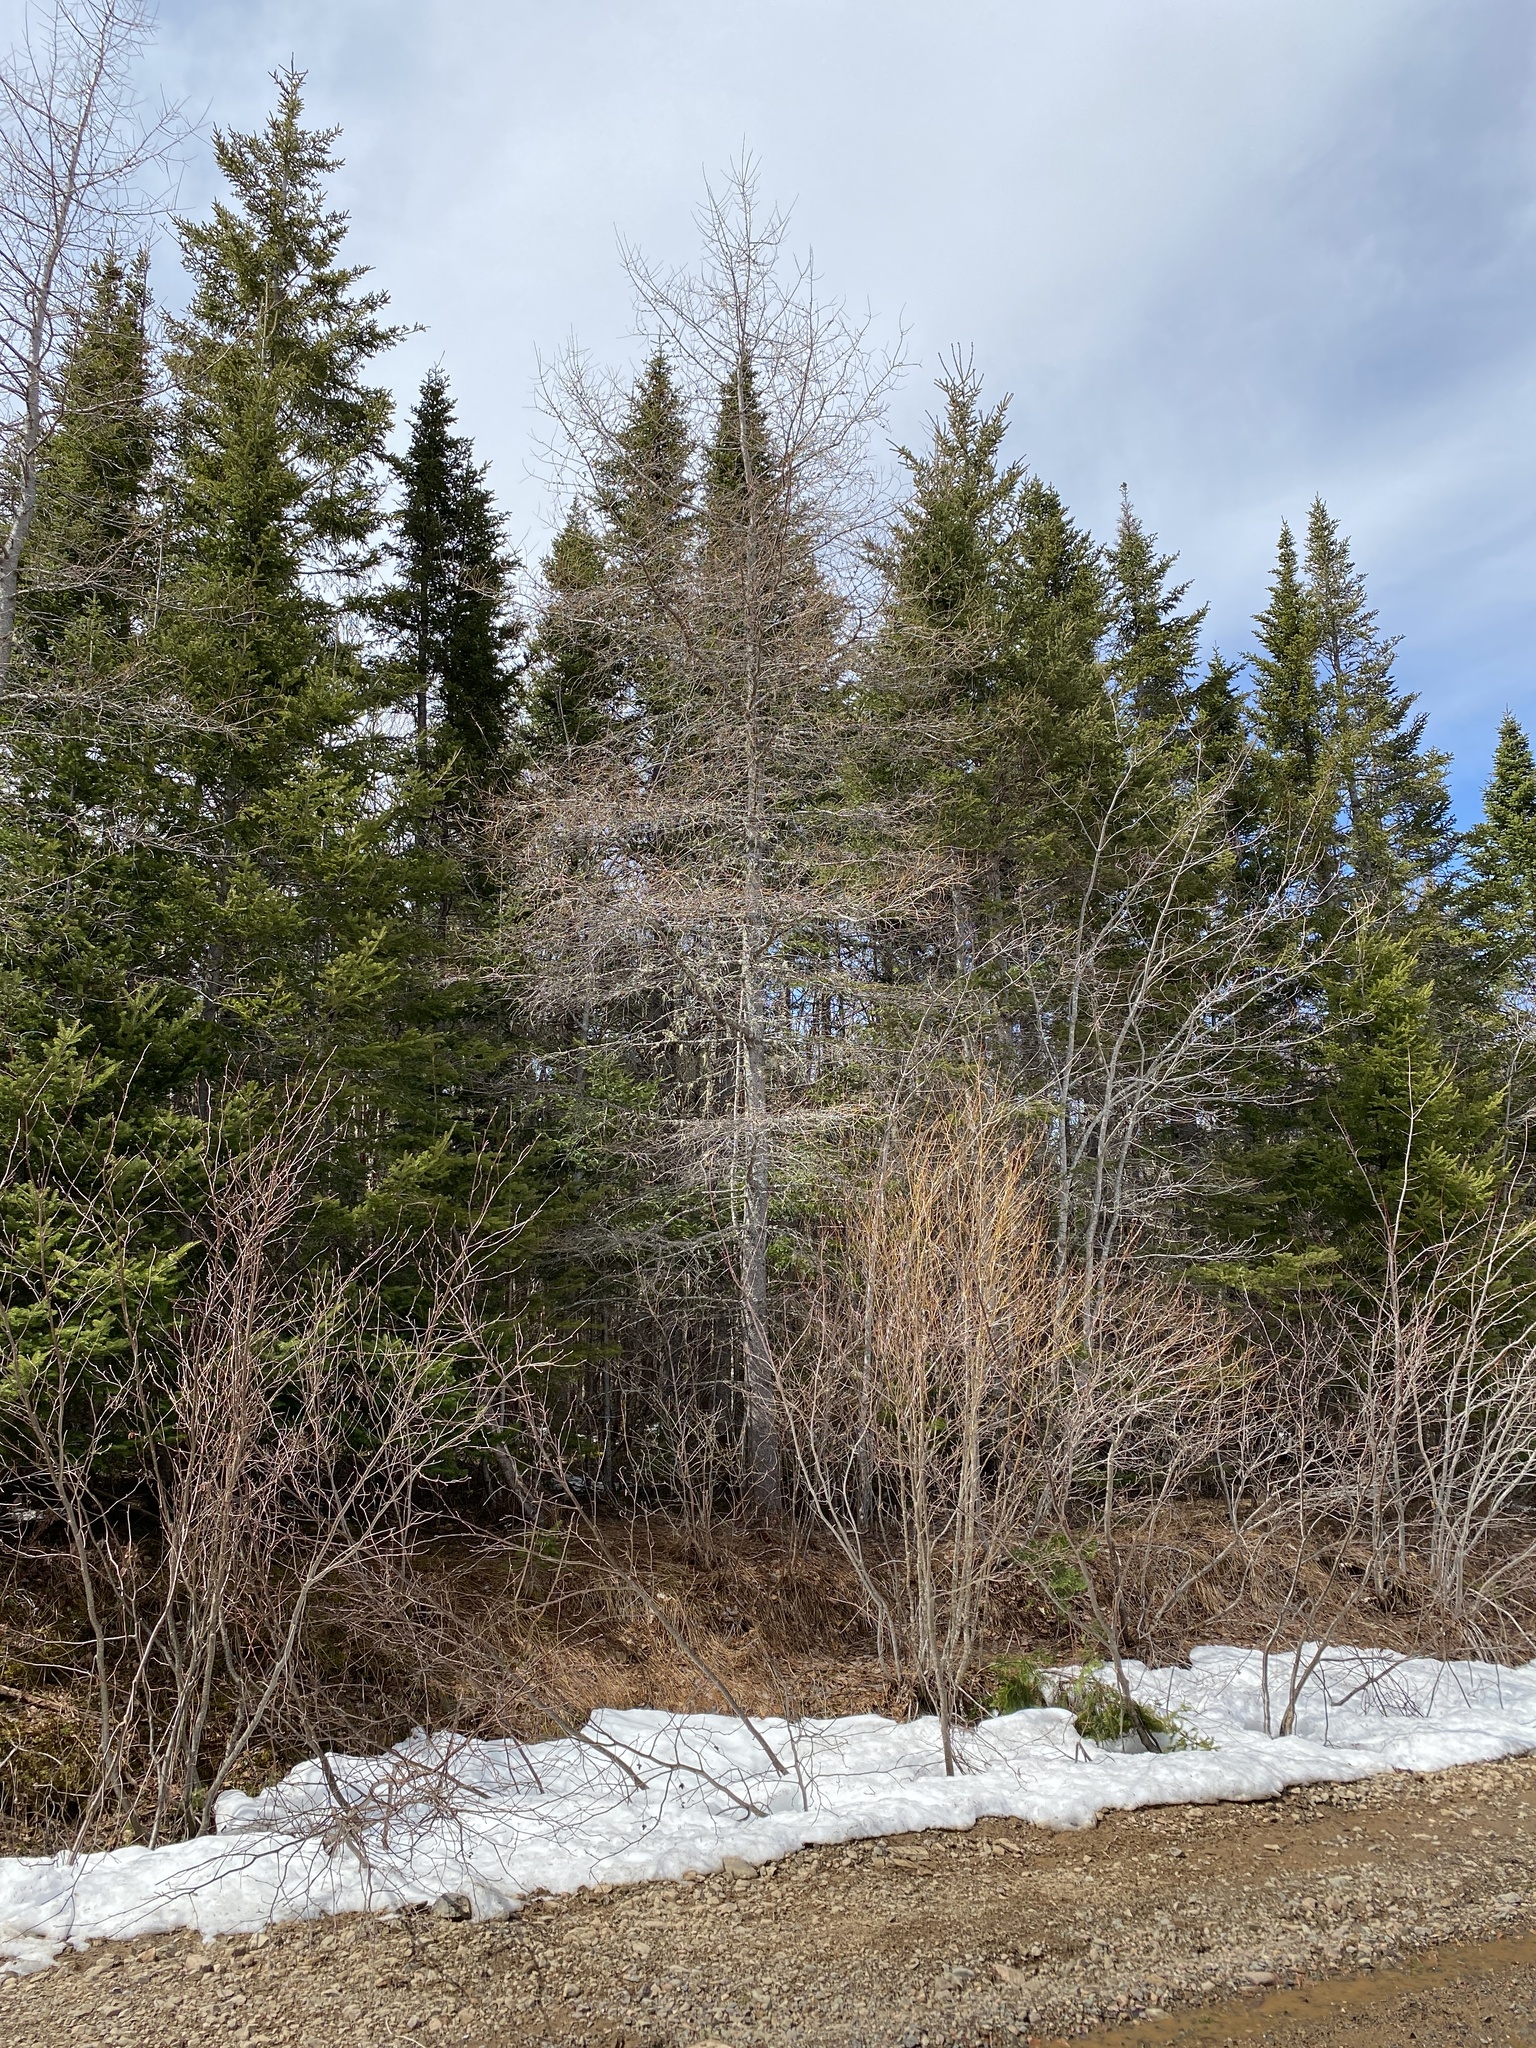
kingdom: Plantae
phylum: Tracheophyta
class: Pinopsida
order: Pinales
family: Pinaceae
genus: Larix
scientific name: Larix laricina
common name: American larch
